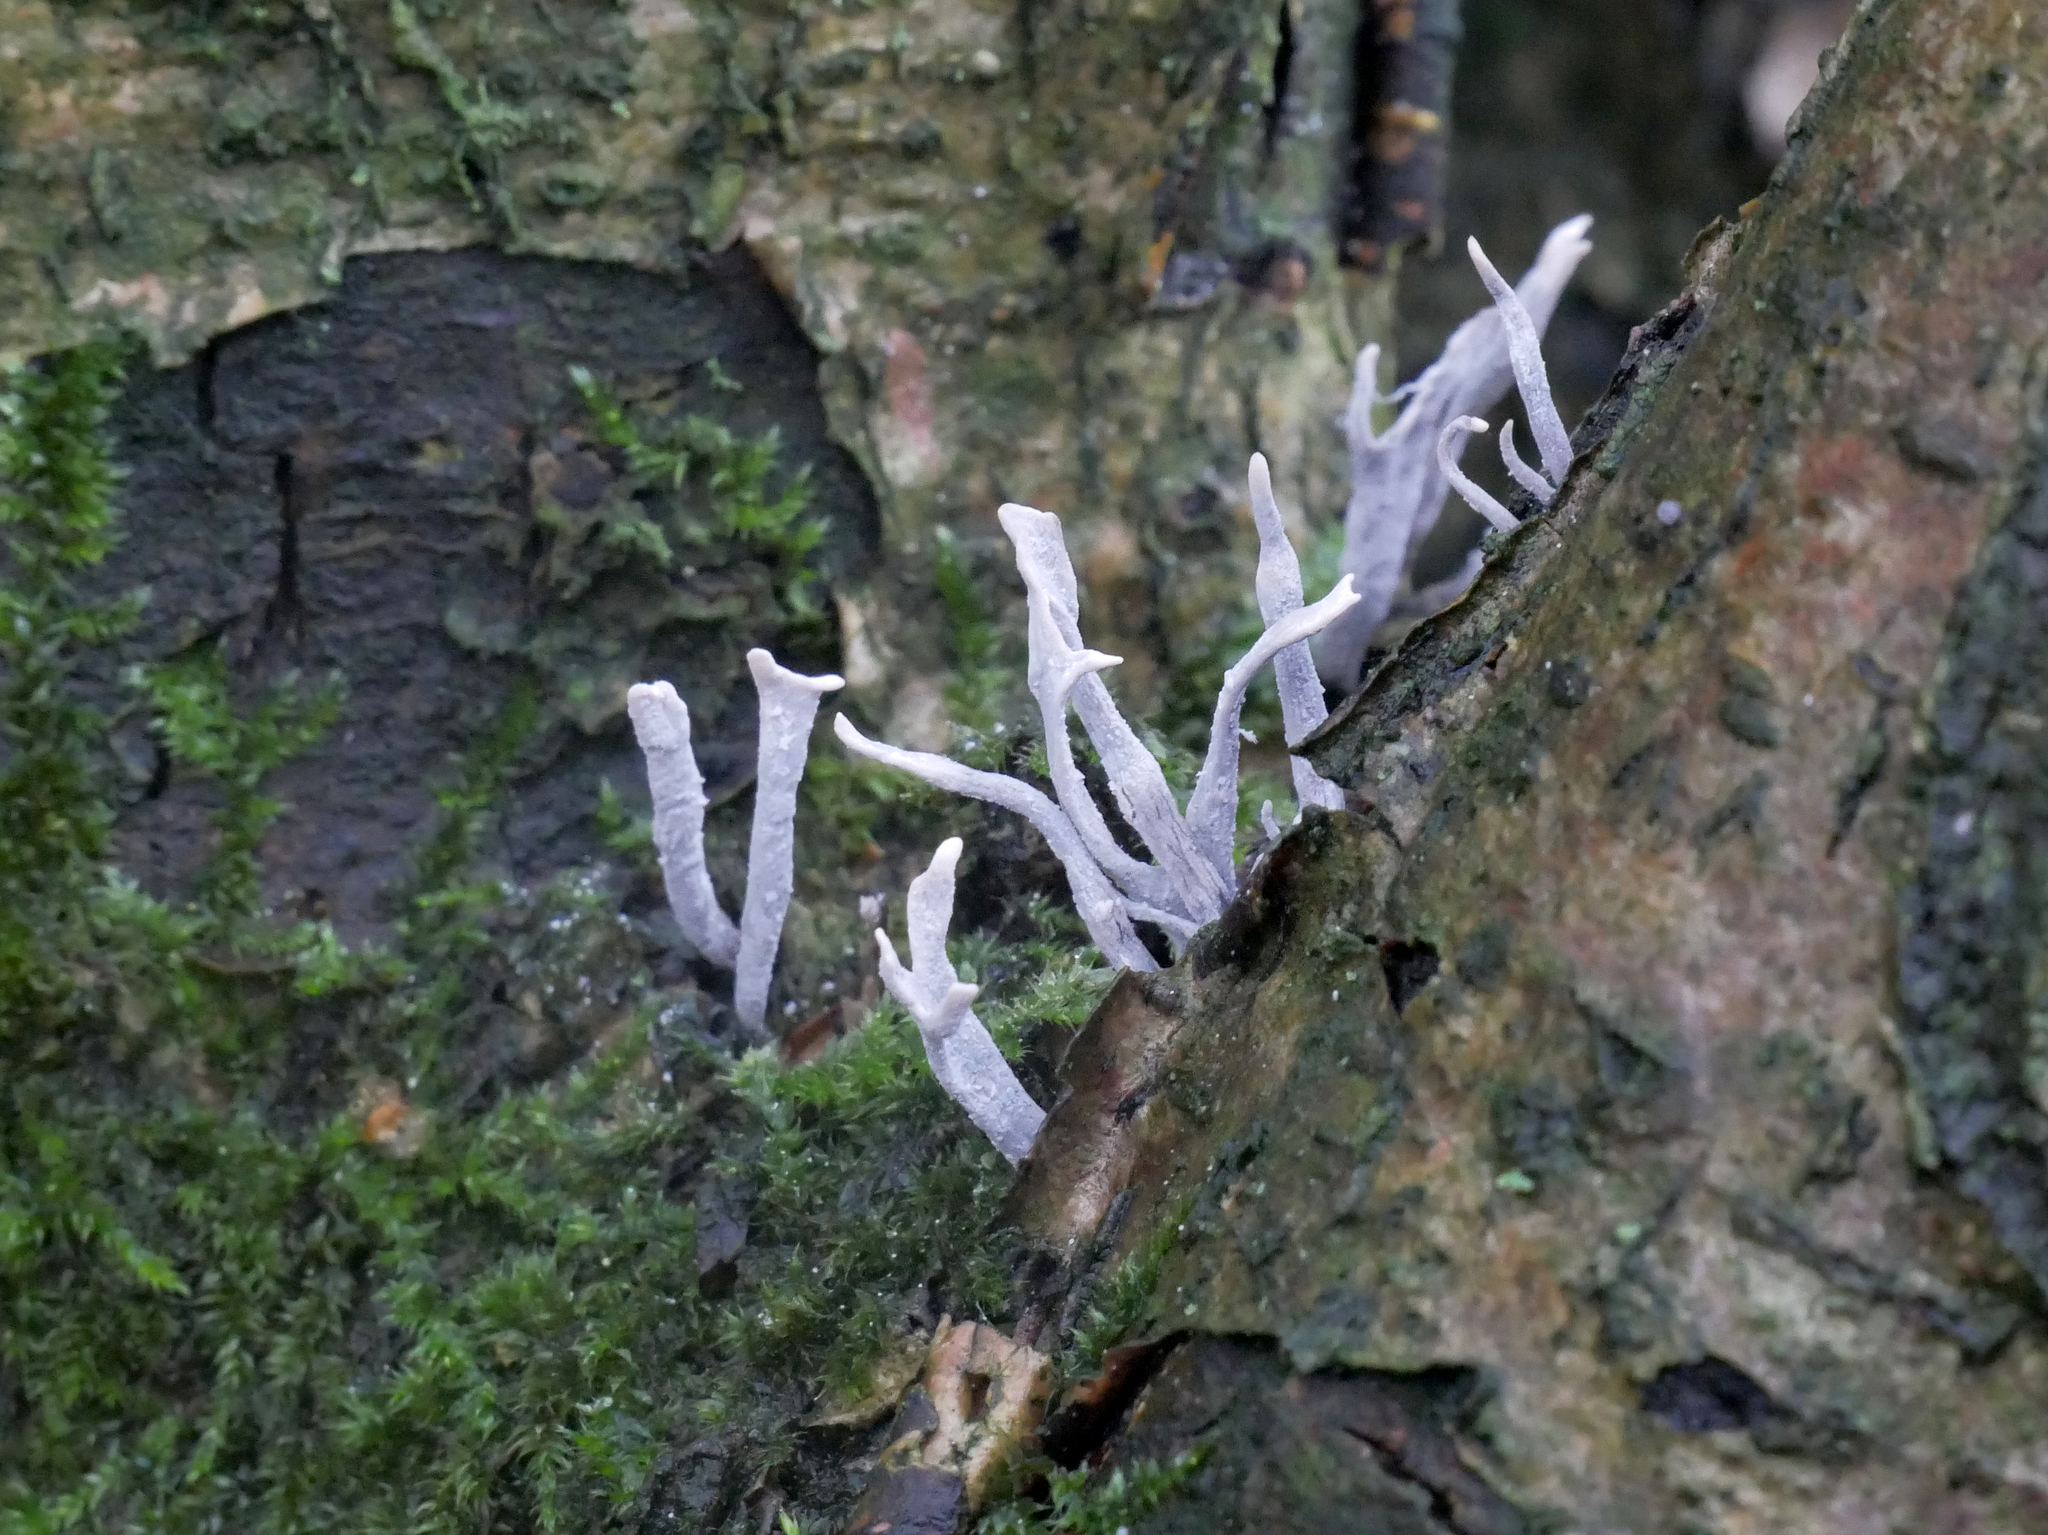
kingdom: Fungi
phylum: Ascomycota
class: Sordariomycetes
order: Xylariales
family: Xylariaceae
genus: Xylaria
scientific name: Xylaria hypoxylon
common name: Candle-snuff fungus
